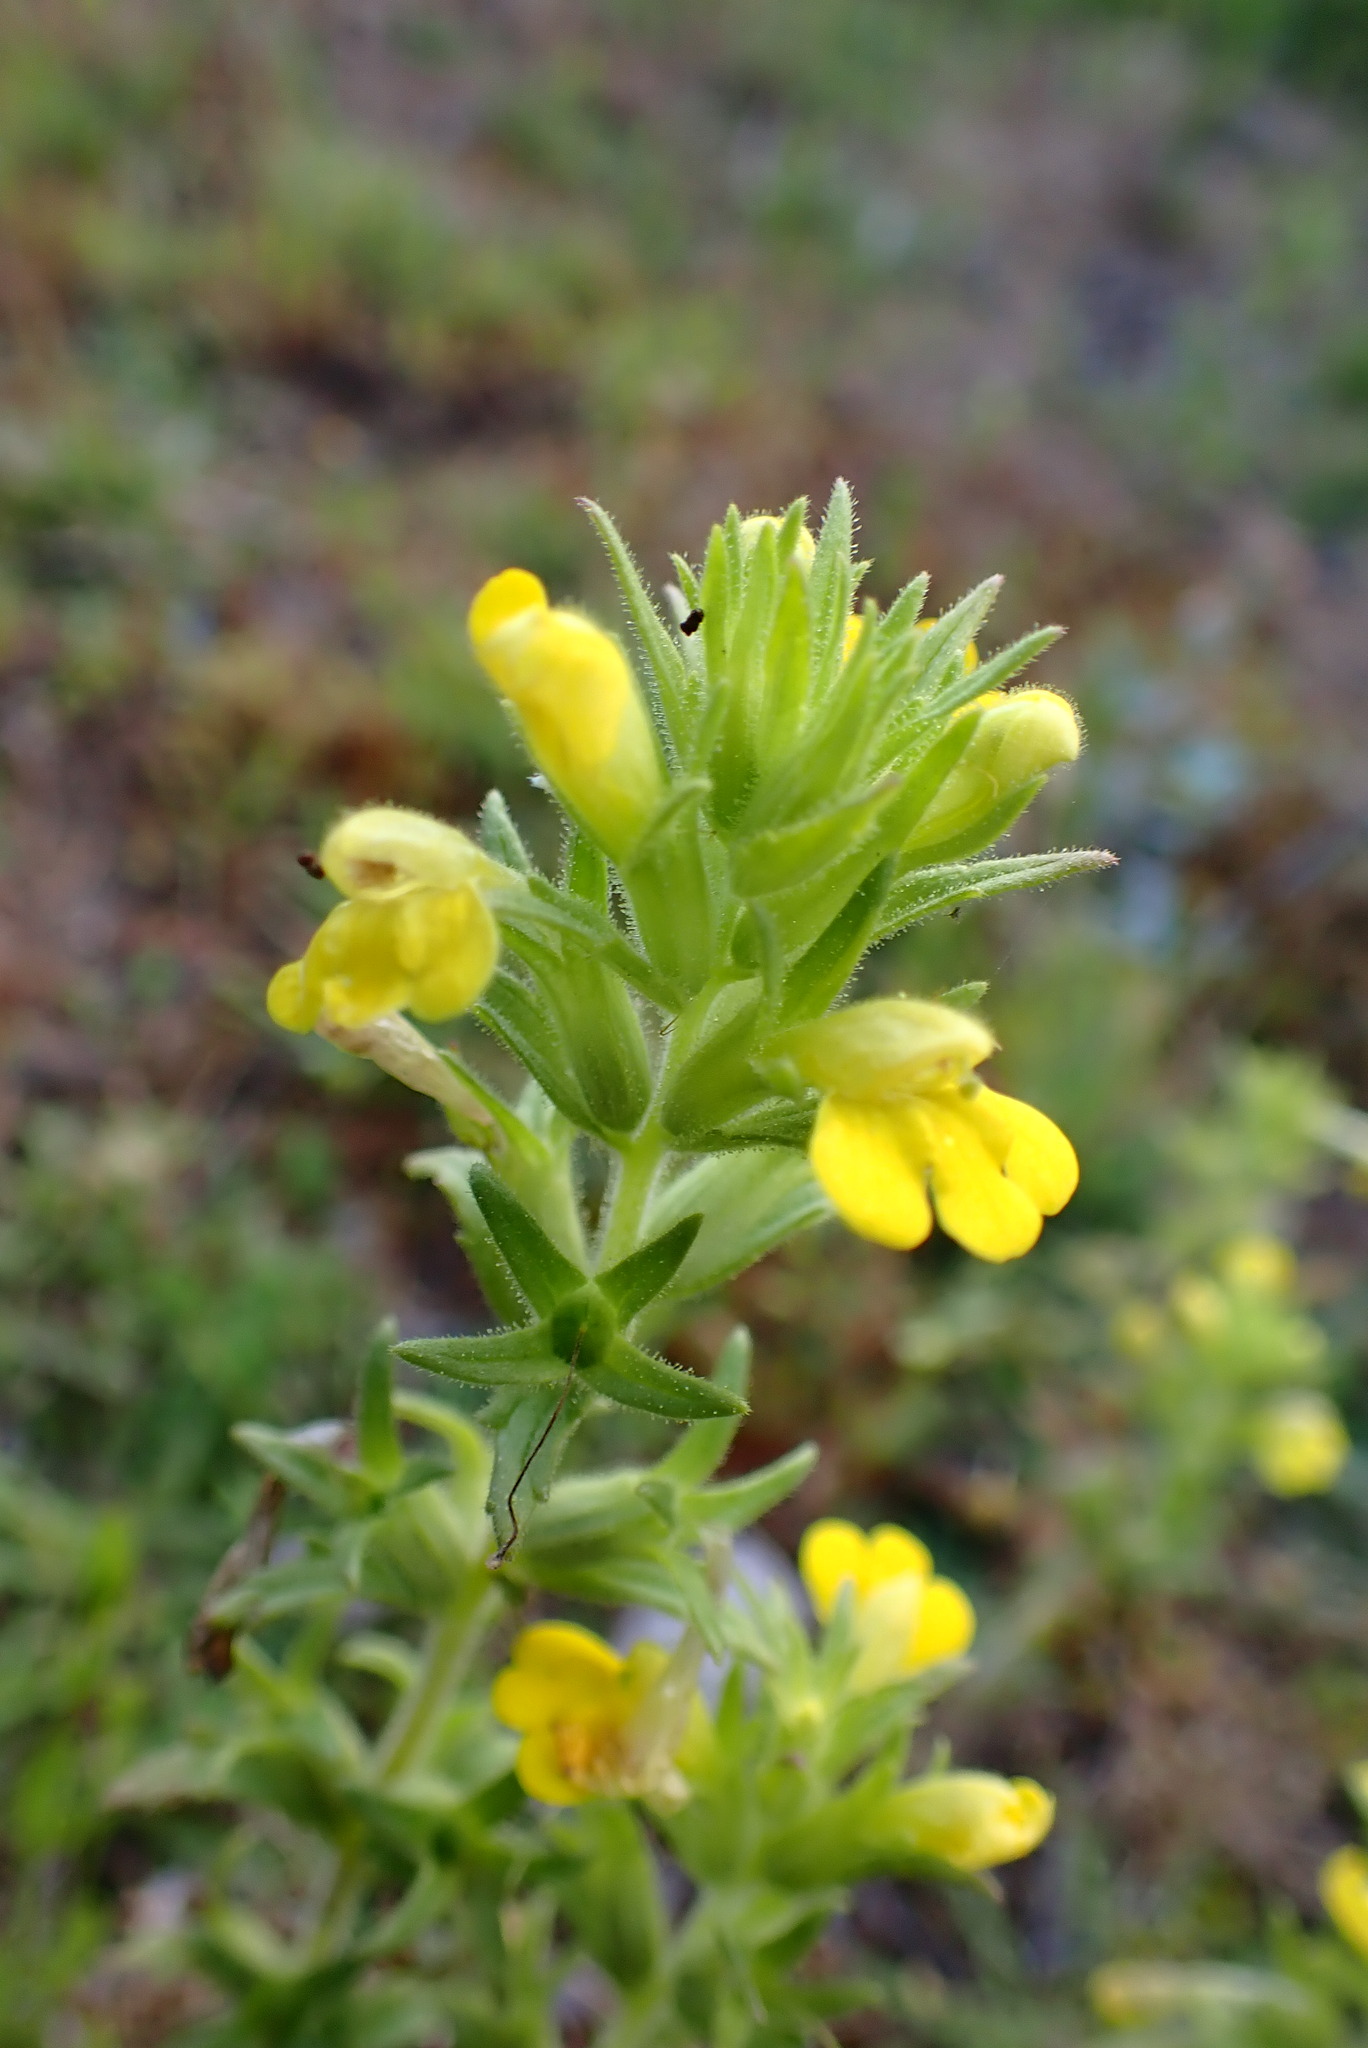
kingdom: Plantae
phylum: Tracheophyta
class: Magnoliopsida
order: Lamiales
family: Orobanchaceae
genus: Bellardia
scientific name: Bellardia viscosa
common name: Sticky parentucellia
